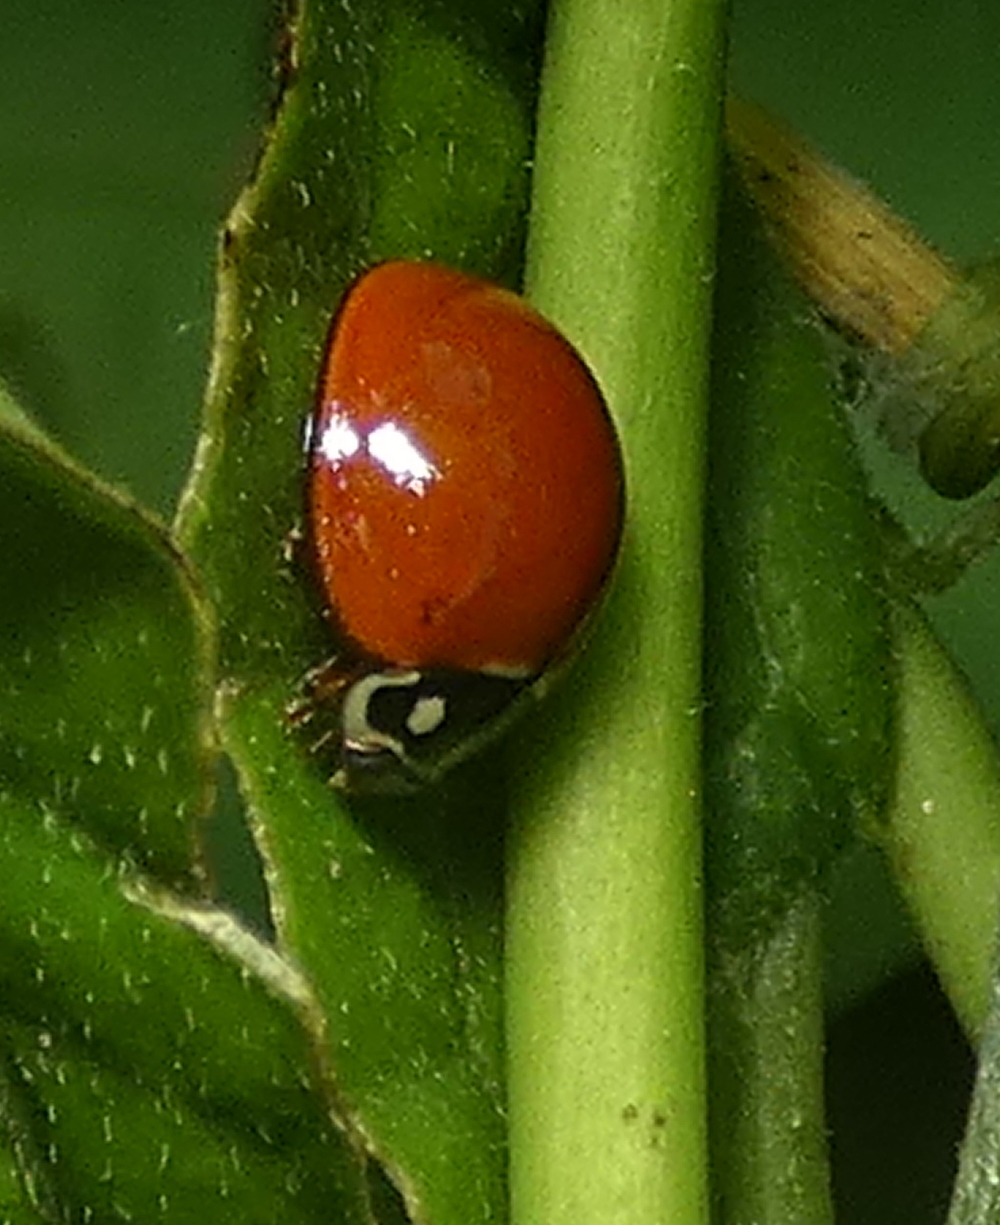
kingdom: Animalia
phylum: Arthropoda
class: Insecta
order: Coleoptera
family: Coccinellidae
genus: Cycloneda
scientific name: Cycloneda sanguinea
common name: Ladybird beetle
